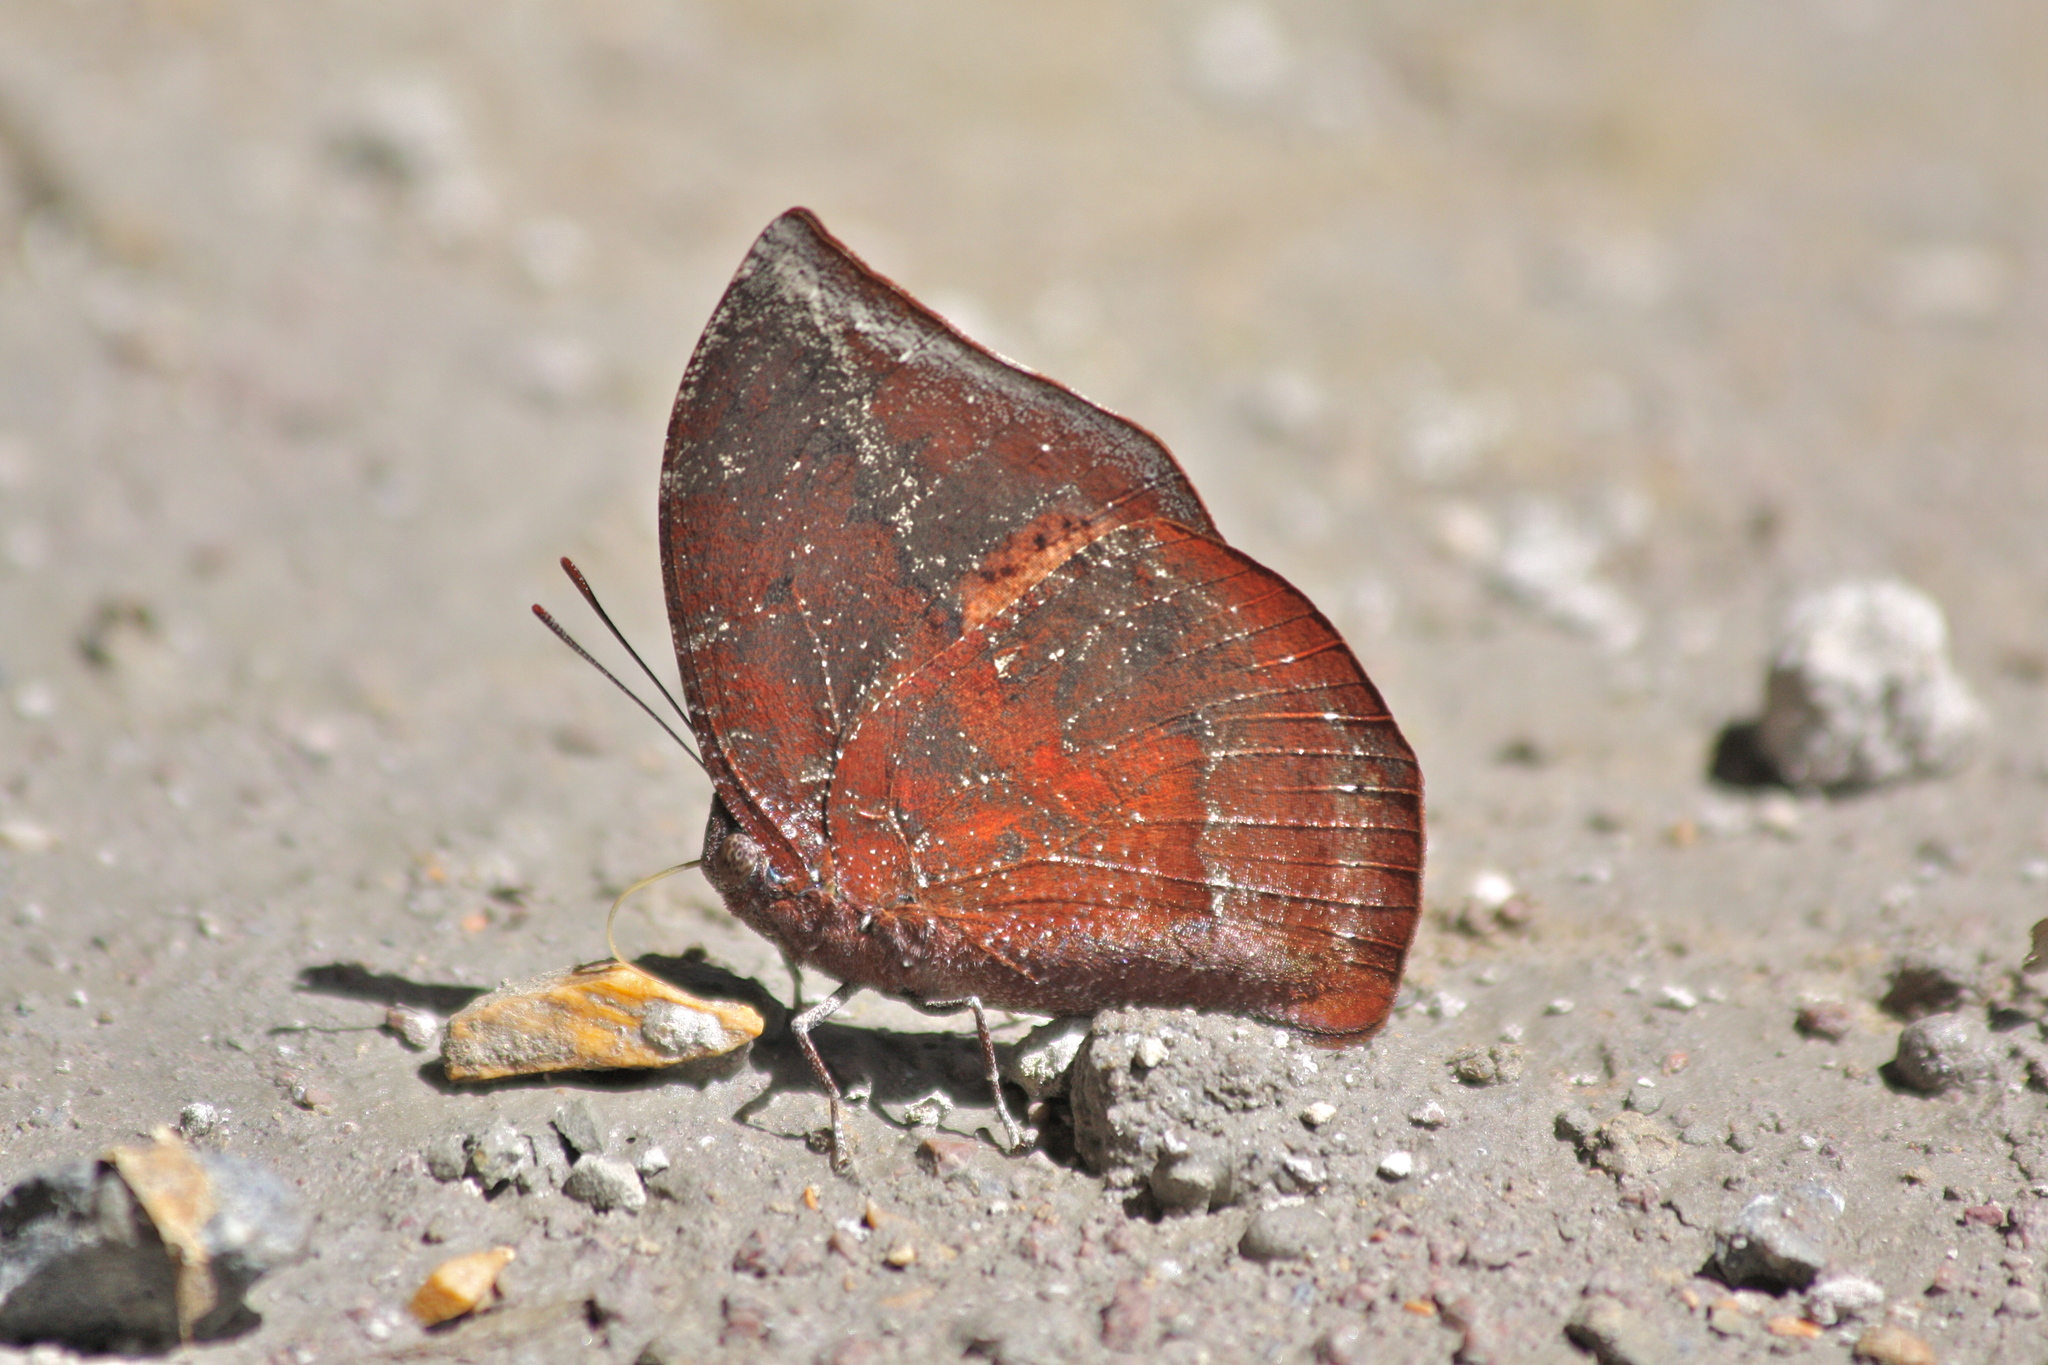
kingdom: Animalia
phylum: Arthropoda
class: Insecta
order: Lepidoptera
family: Nymphalidae
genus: Memphis
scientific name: Memphis lyceus
